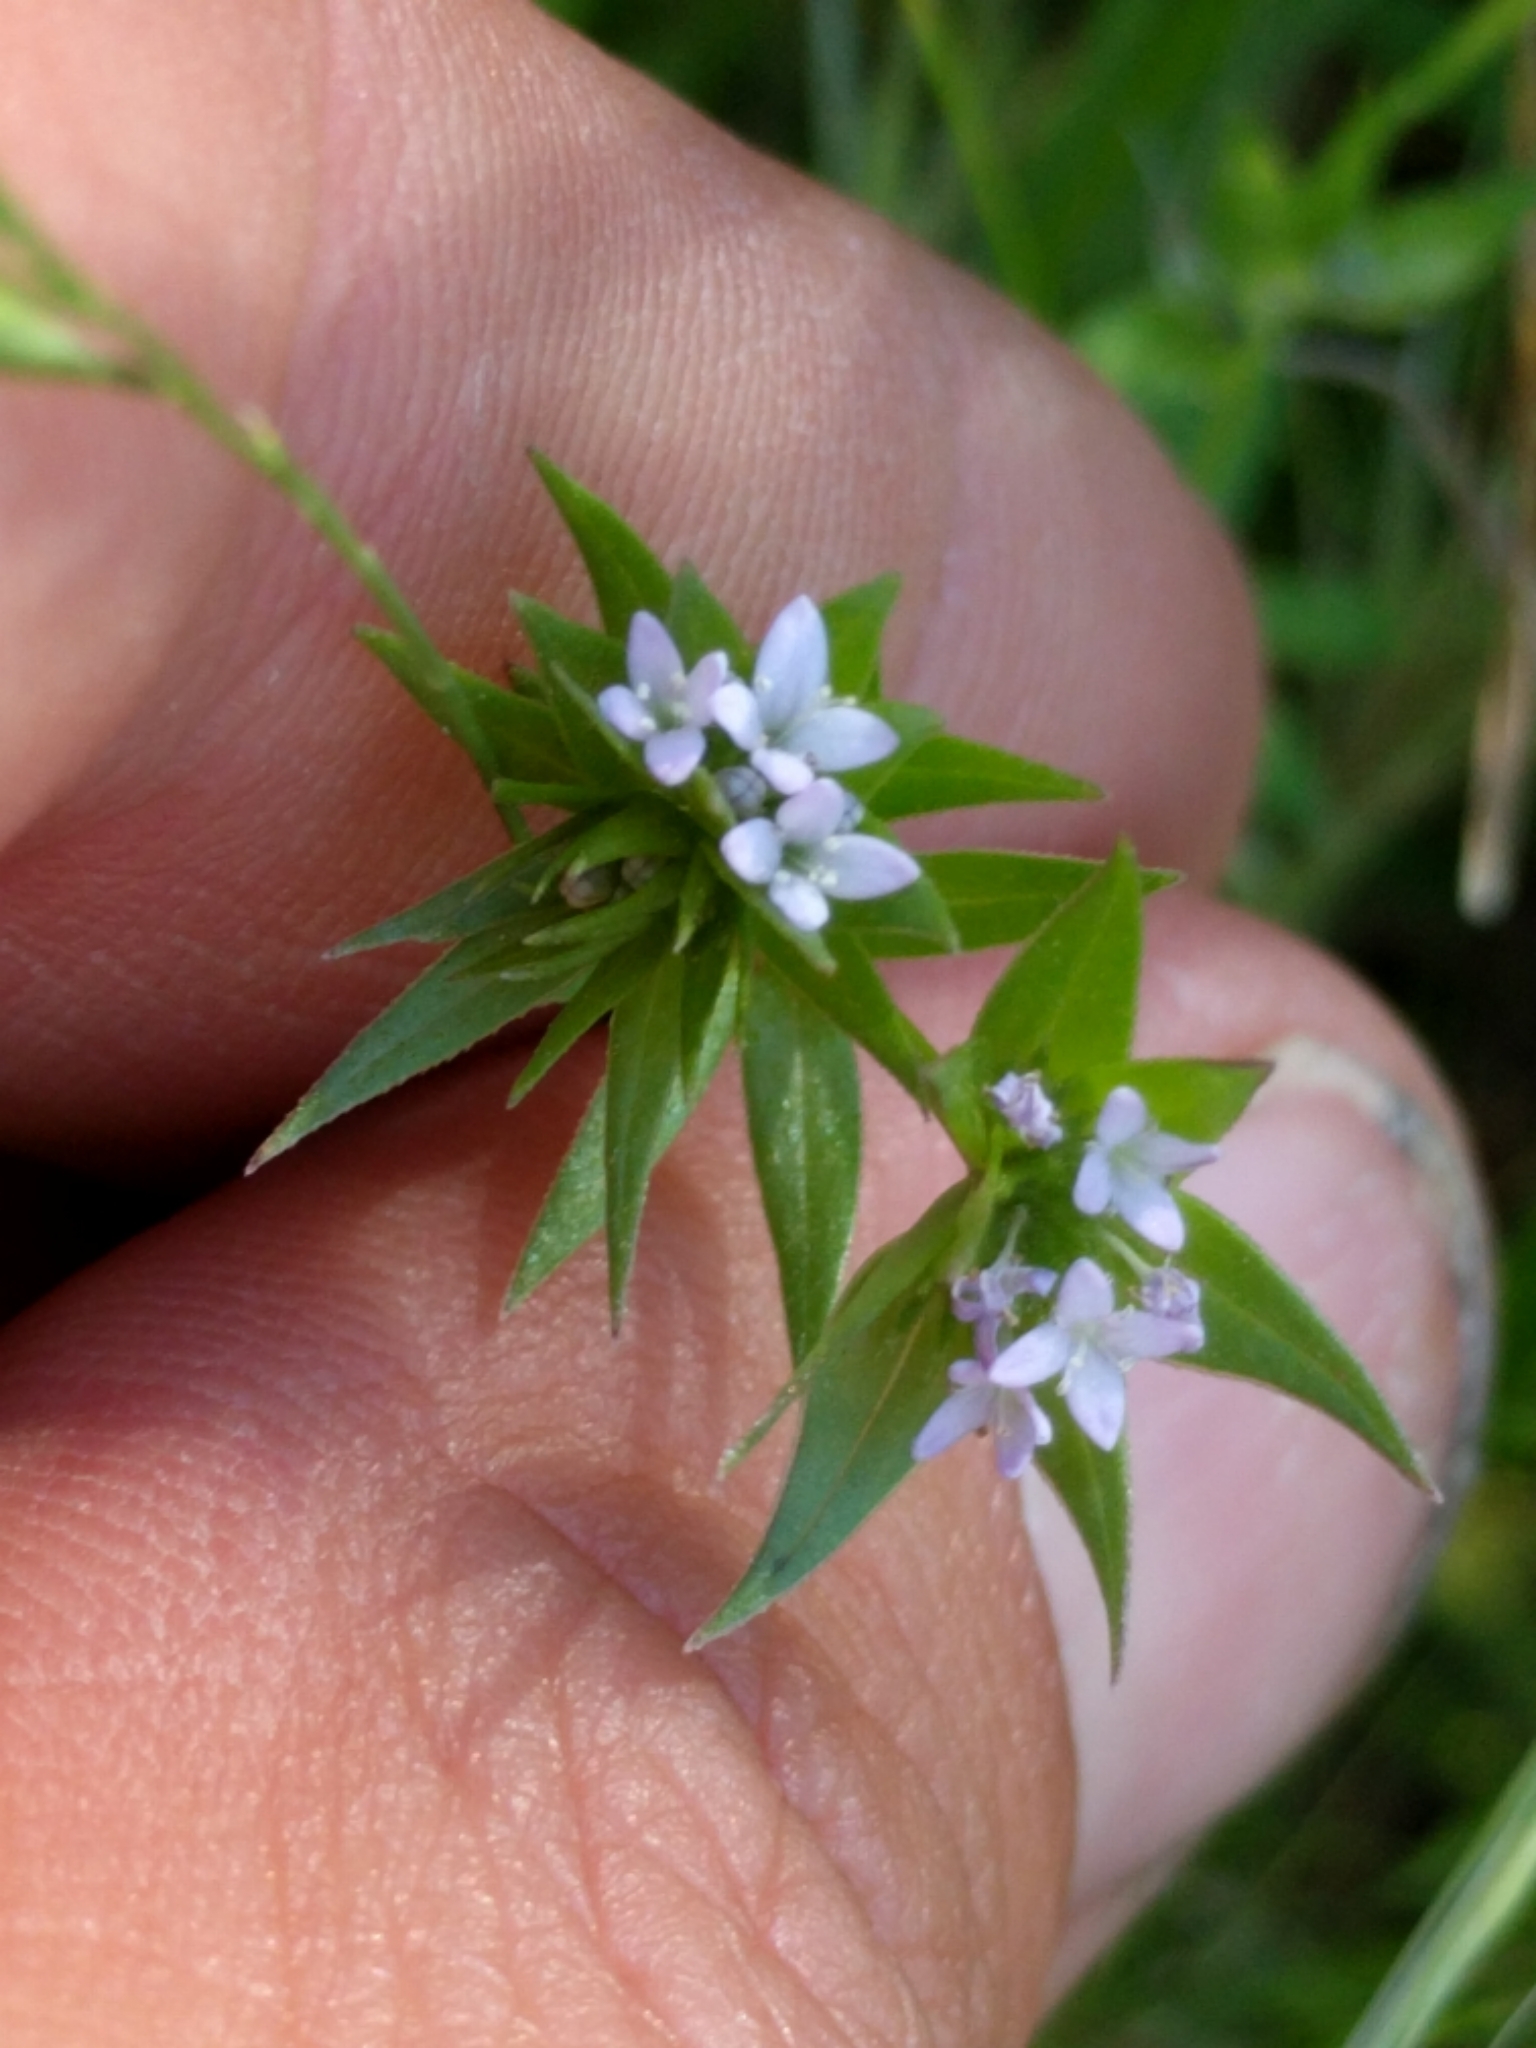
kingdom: Plantae
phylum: Tracheophyta
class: Magnoliopsida
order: Gentianales
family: Rubiaceae
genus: Sherardia
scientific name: Sherardia arvensis
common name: Field madder
